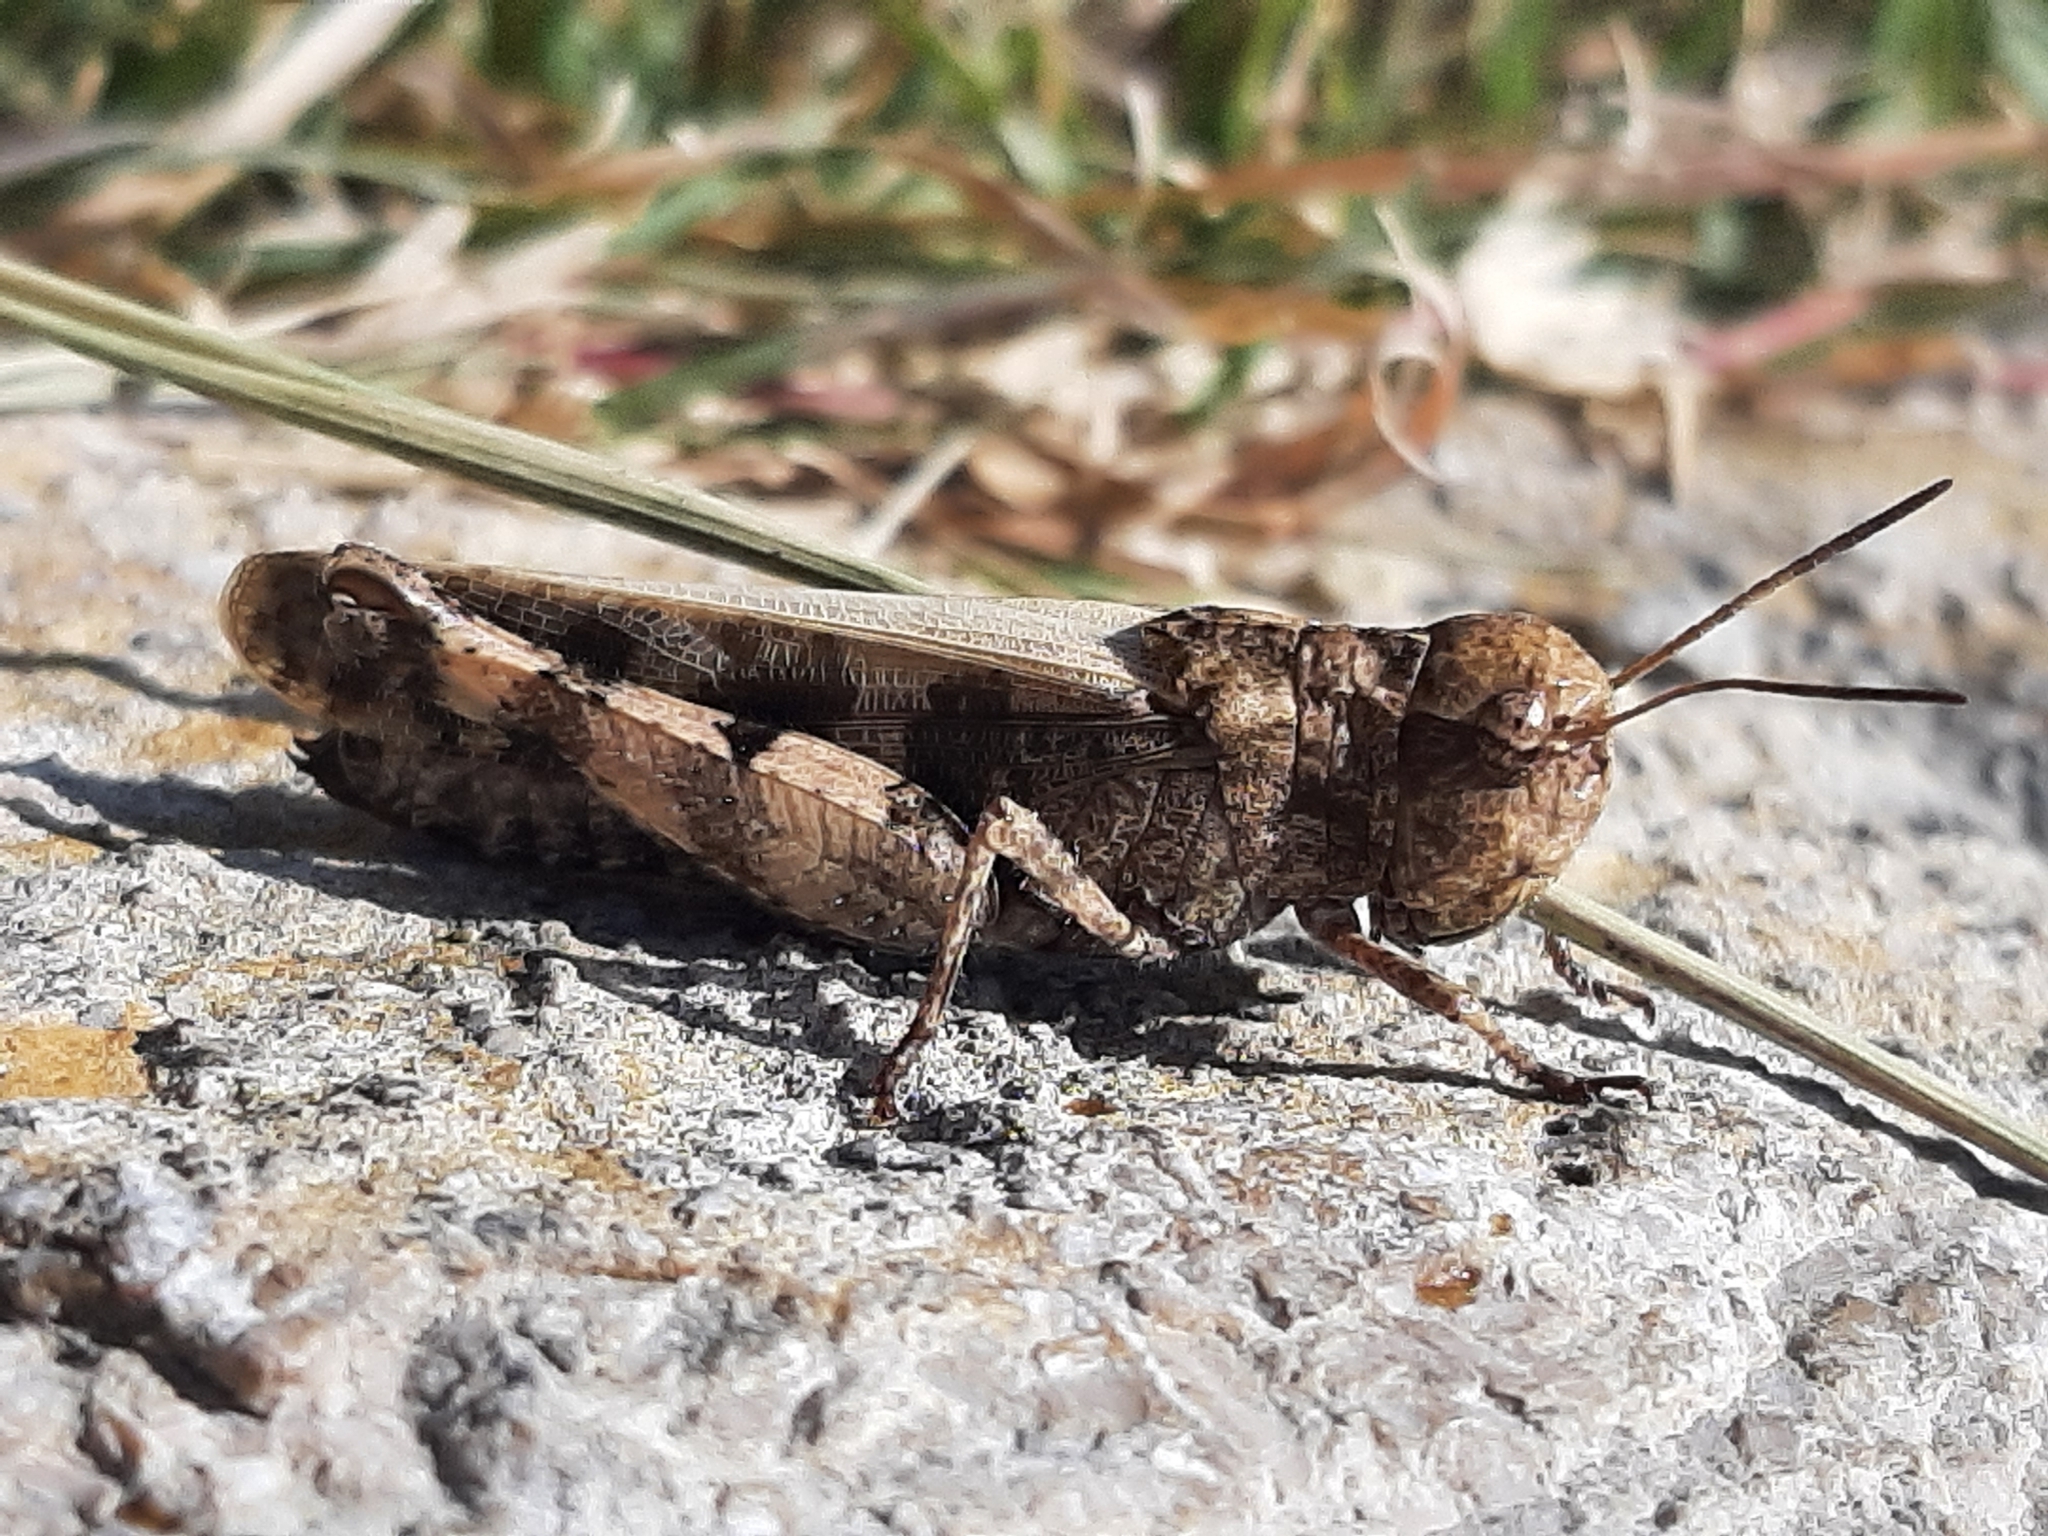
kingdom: Animalia
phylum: Arthropoda
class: Insecta
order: Orthoptera
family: Acrididae
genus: Encoptolophus
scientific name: Encoptolophus sordidus
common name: Dusky grasshopper
